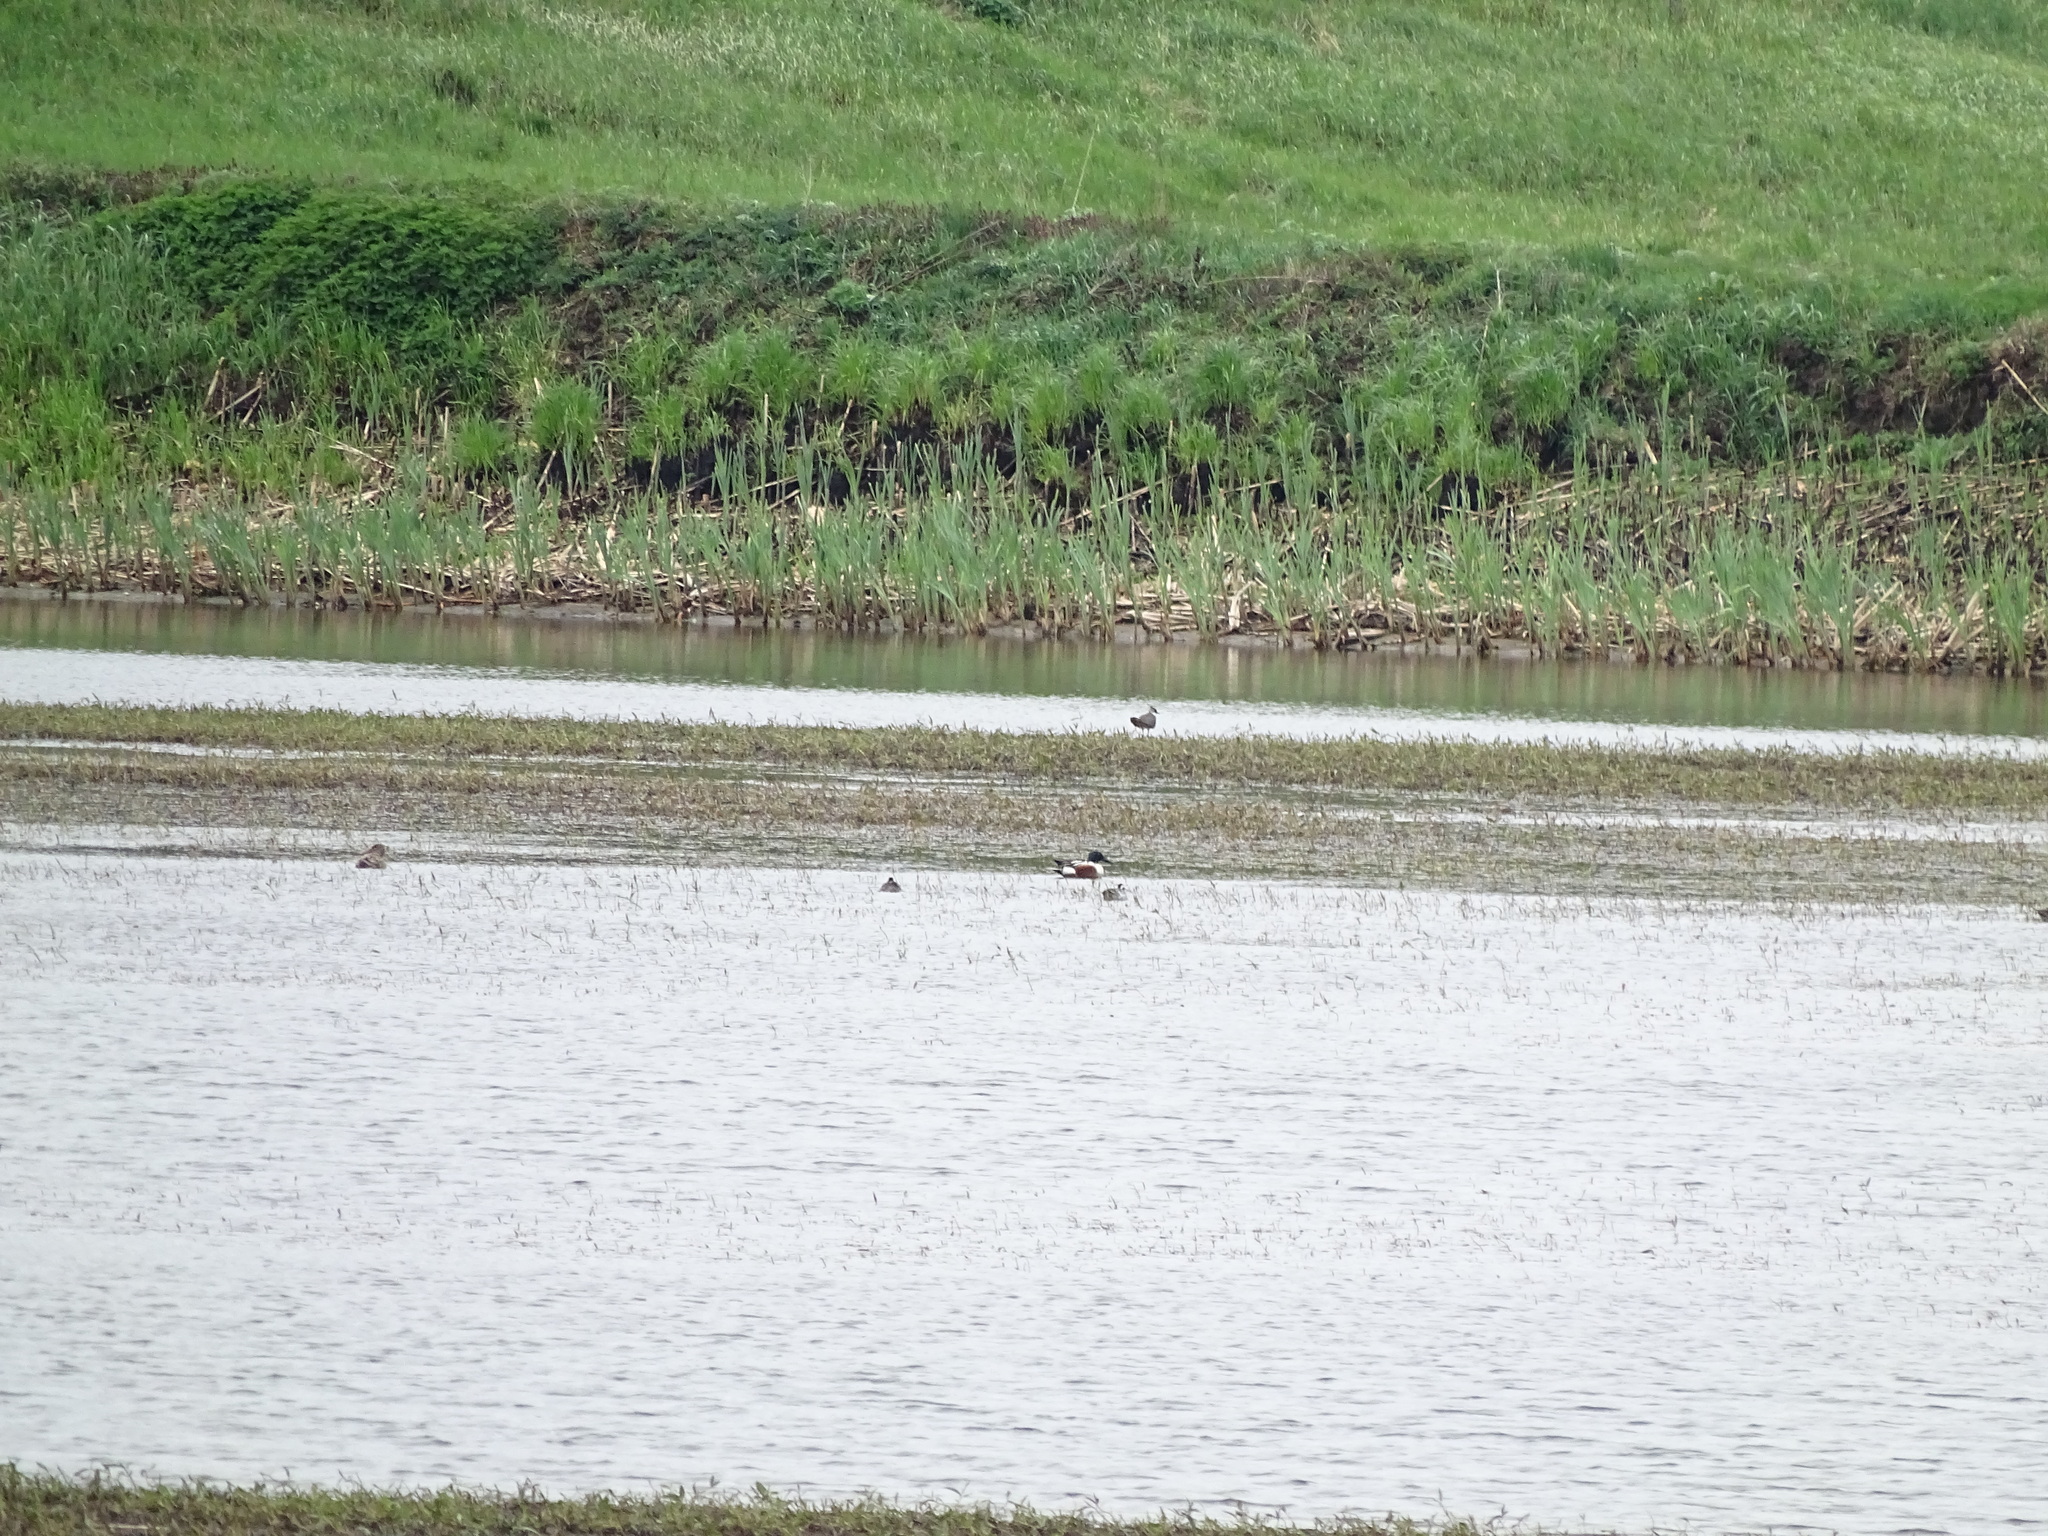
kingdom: Animalia
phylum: Chordata
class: Aves
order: Anseriformes
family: Anatidae
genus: Spatula
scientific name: Spatula clypeata
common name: Northern shoveler
